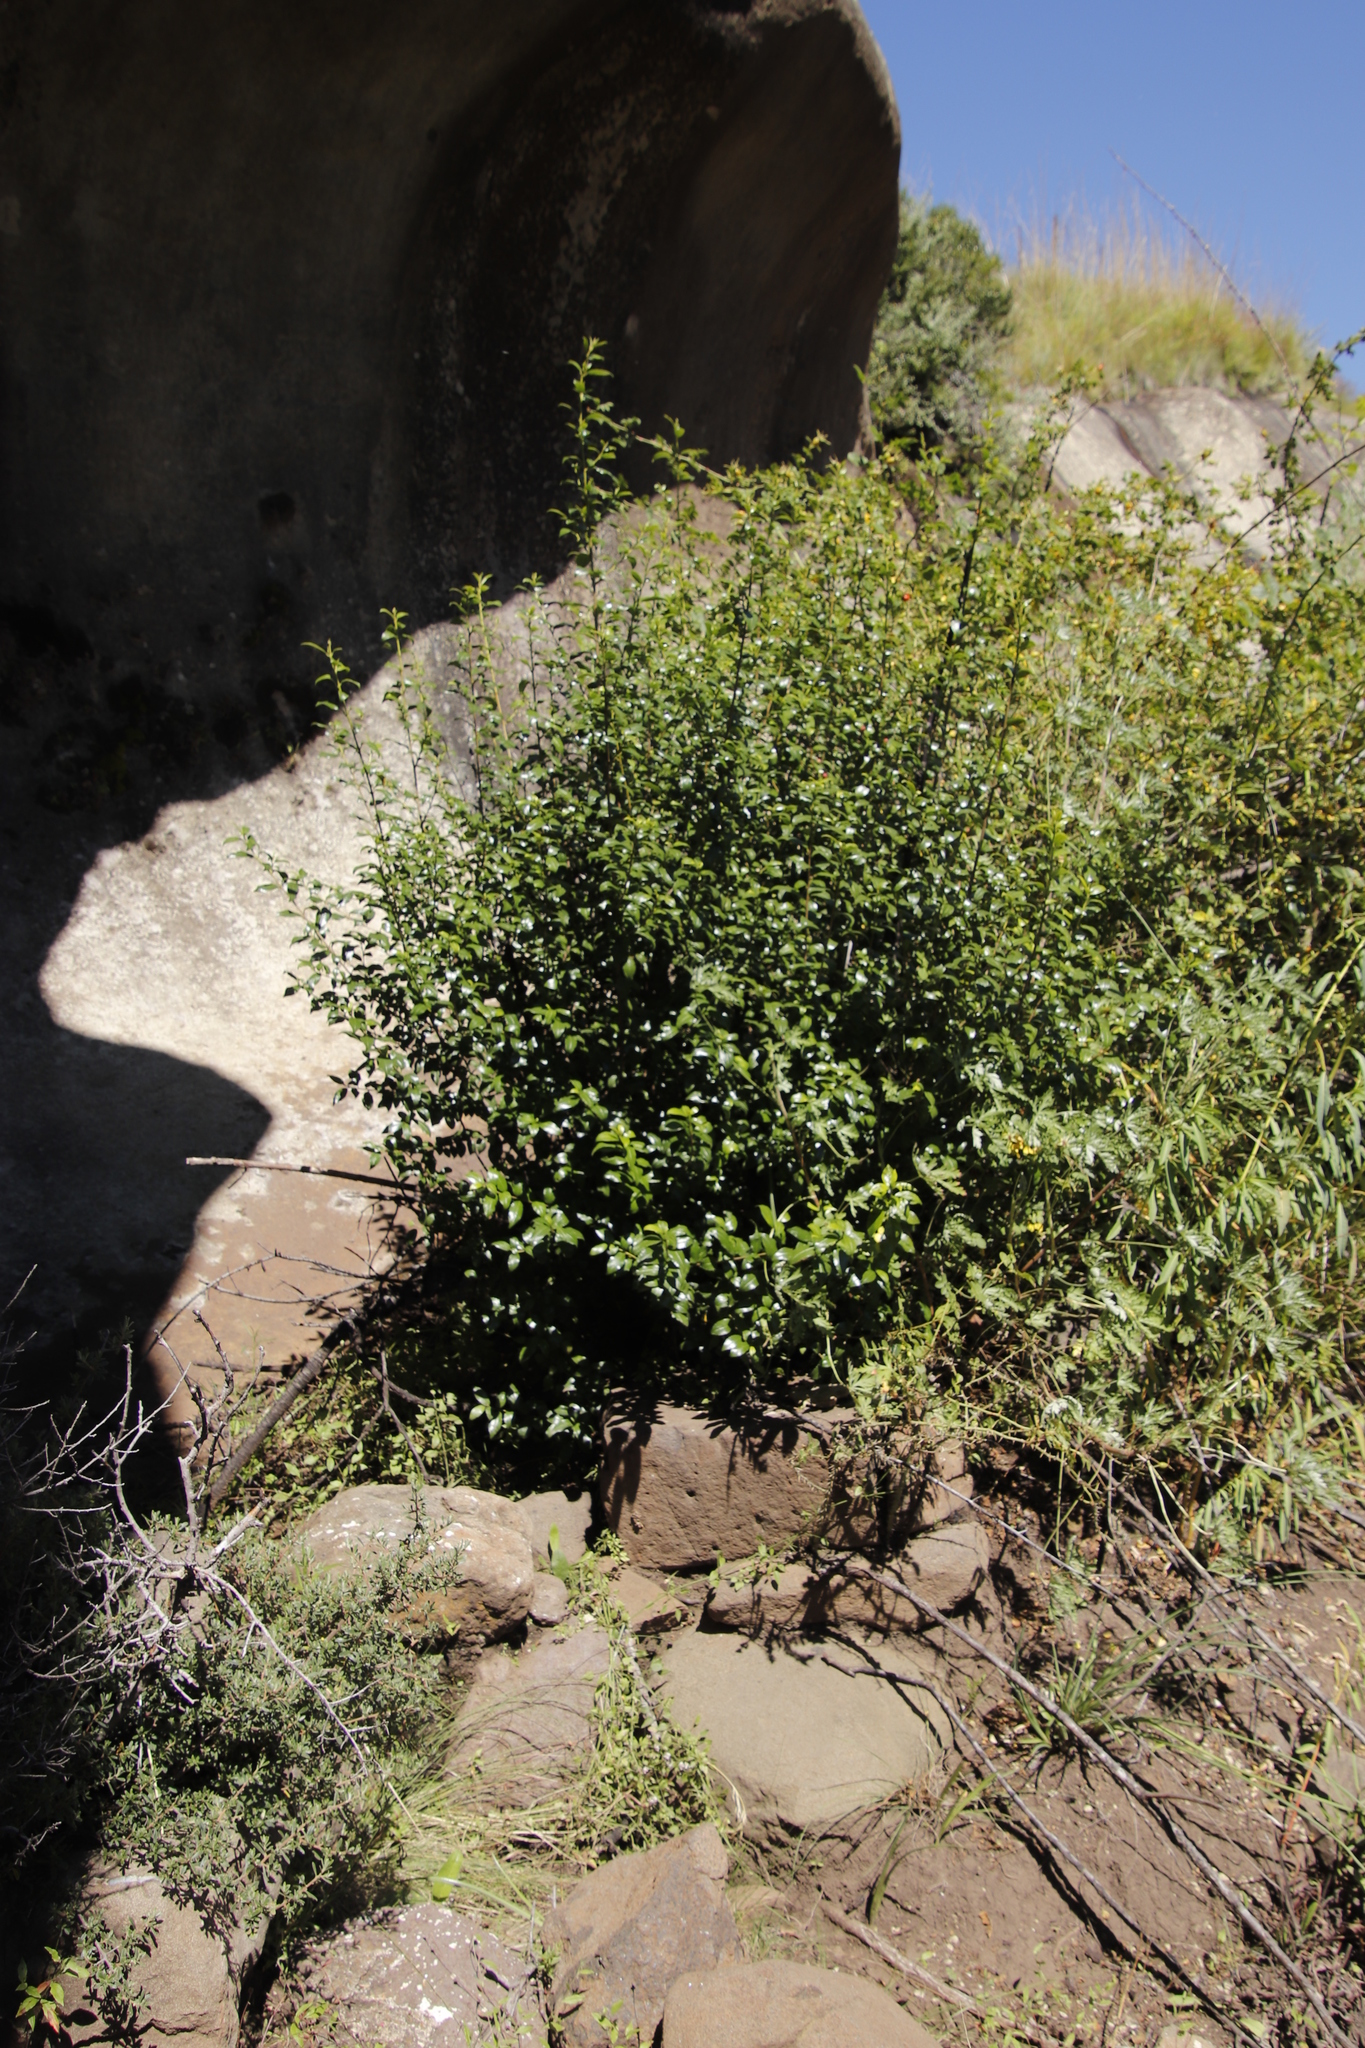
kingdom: Plantae
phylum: Tracheophyta
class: Magnoliopsida
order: Rosales
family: Rhamnaceae
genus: Rhamnus
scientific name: Rhamnus prinoides
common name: Dogwood
